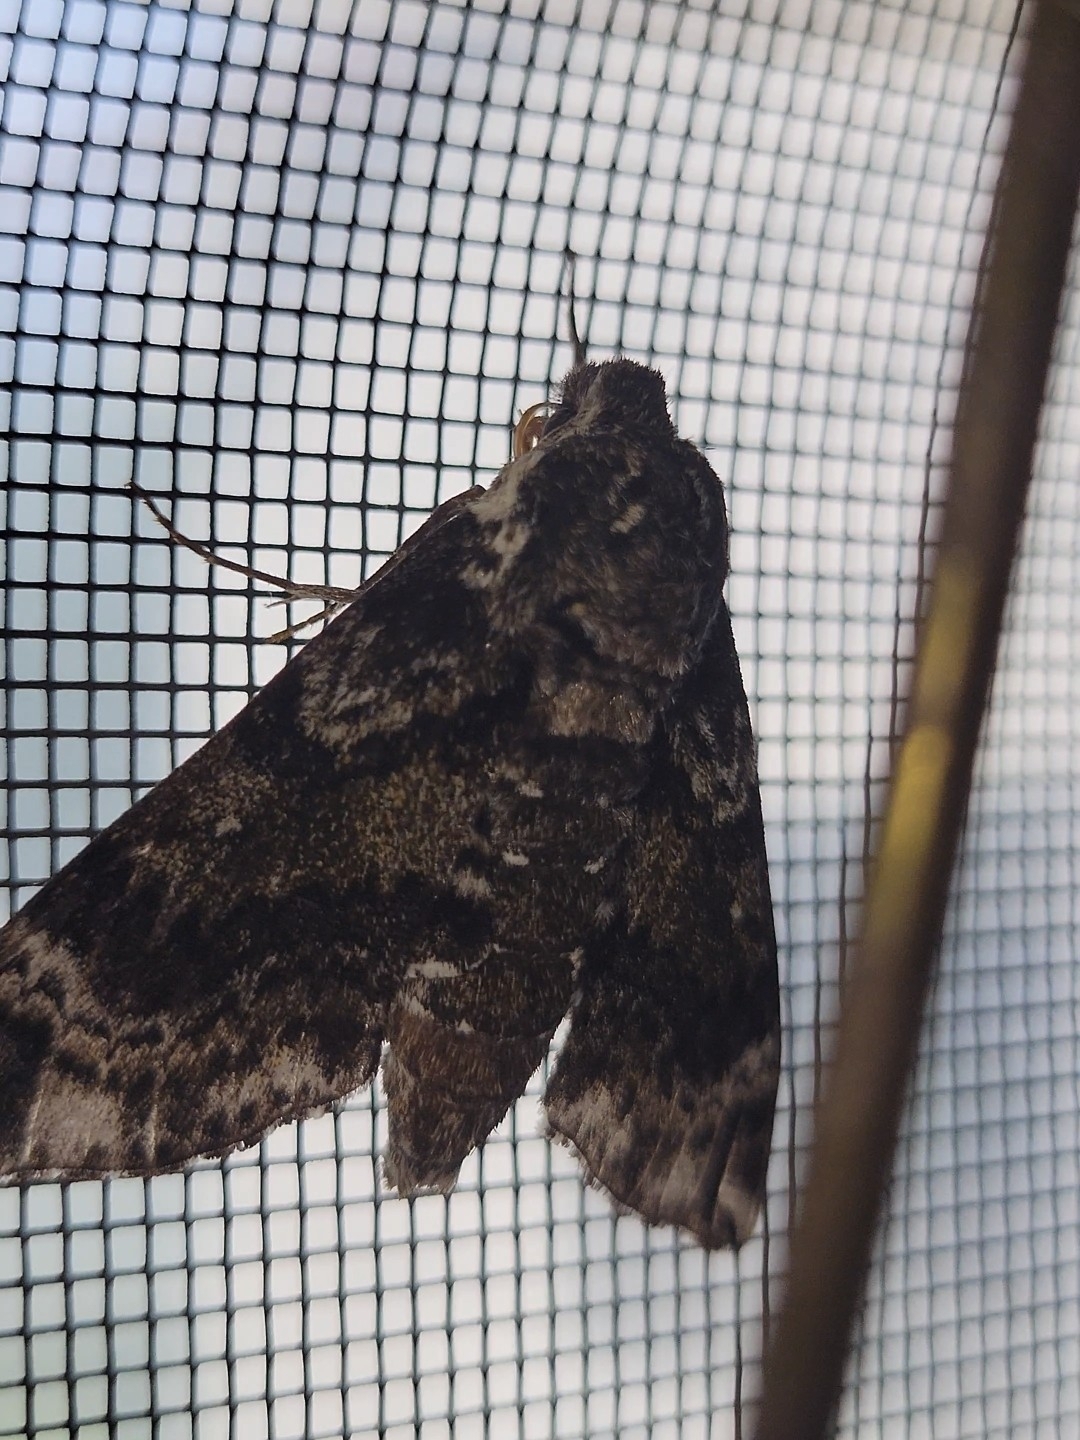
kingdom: Animalia
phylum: Arthropoda
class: Insecta
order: Lepidoptera
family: Sphingidae
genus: Dolba
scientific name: Dolba hyloeus
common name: Pawpaw sphinx
